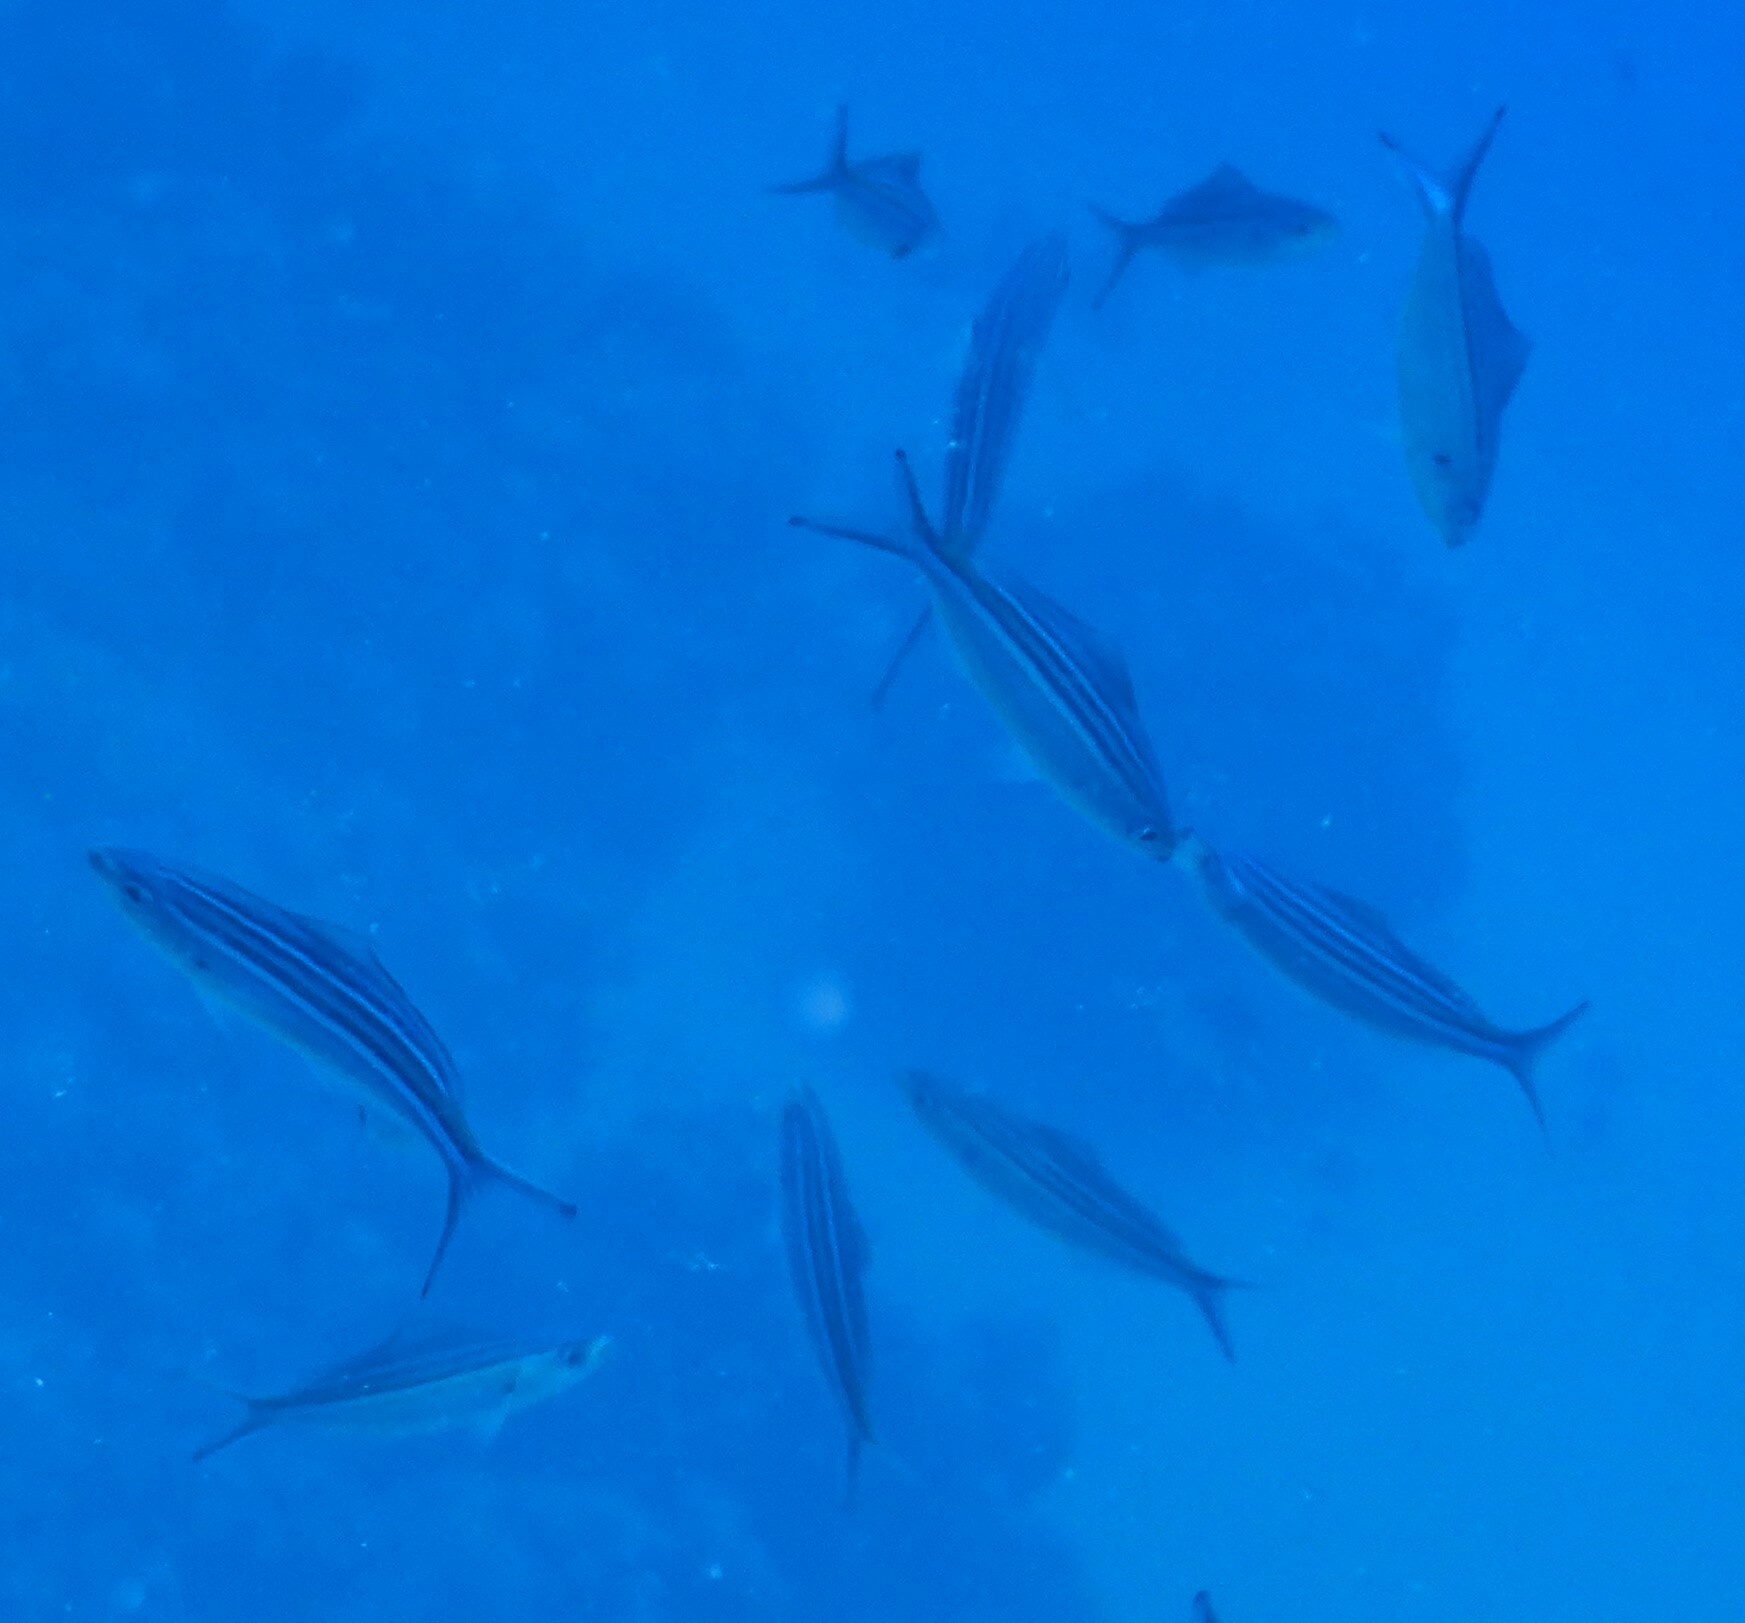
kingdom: Animalia
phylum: Chordata
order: Perciformes
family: Caesionidae
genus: Caesio
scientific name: Caesio striata
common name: Striated fusilier
